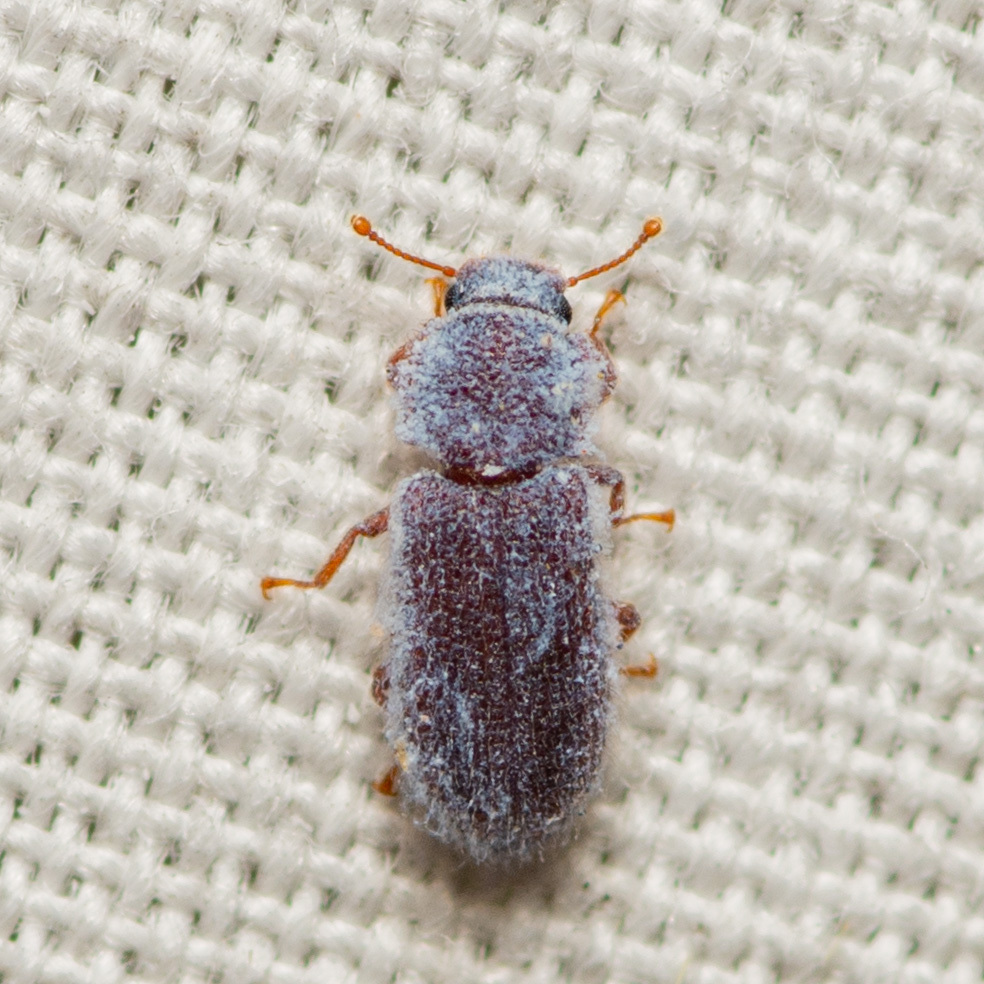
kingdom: Animalia
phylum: Arthropoda
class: Insecta
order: Coleoptera
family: Zopheridae
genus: Endeitoma
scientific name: Endeitoma granulata
